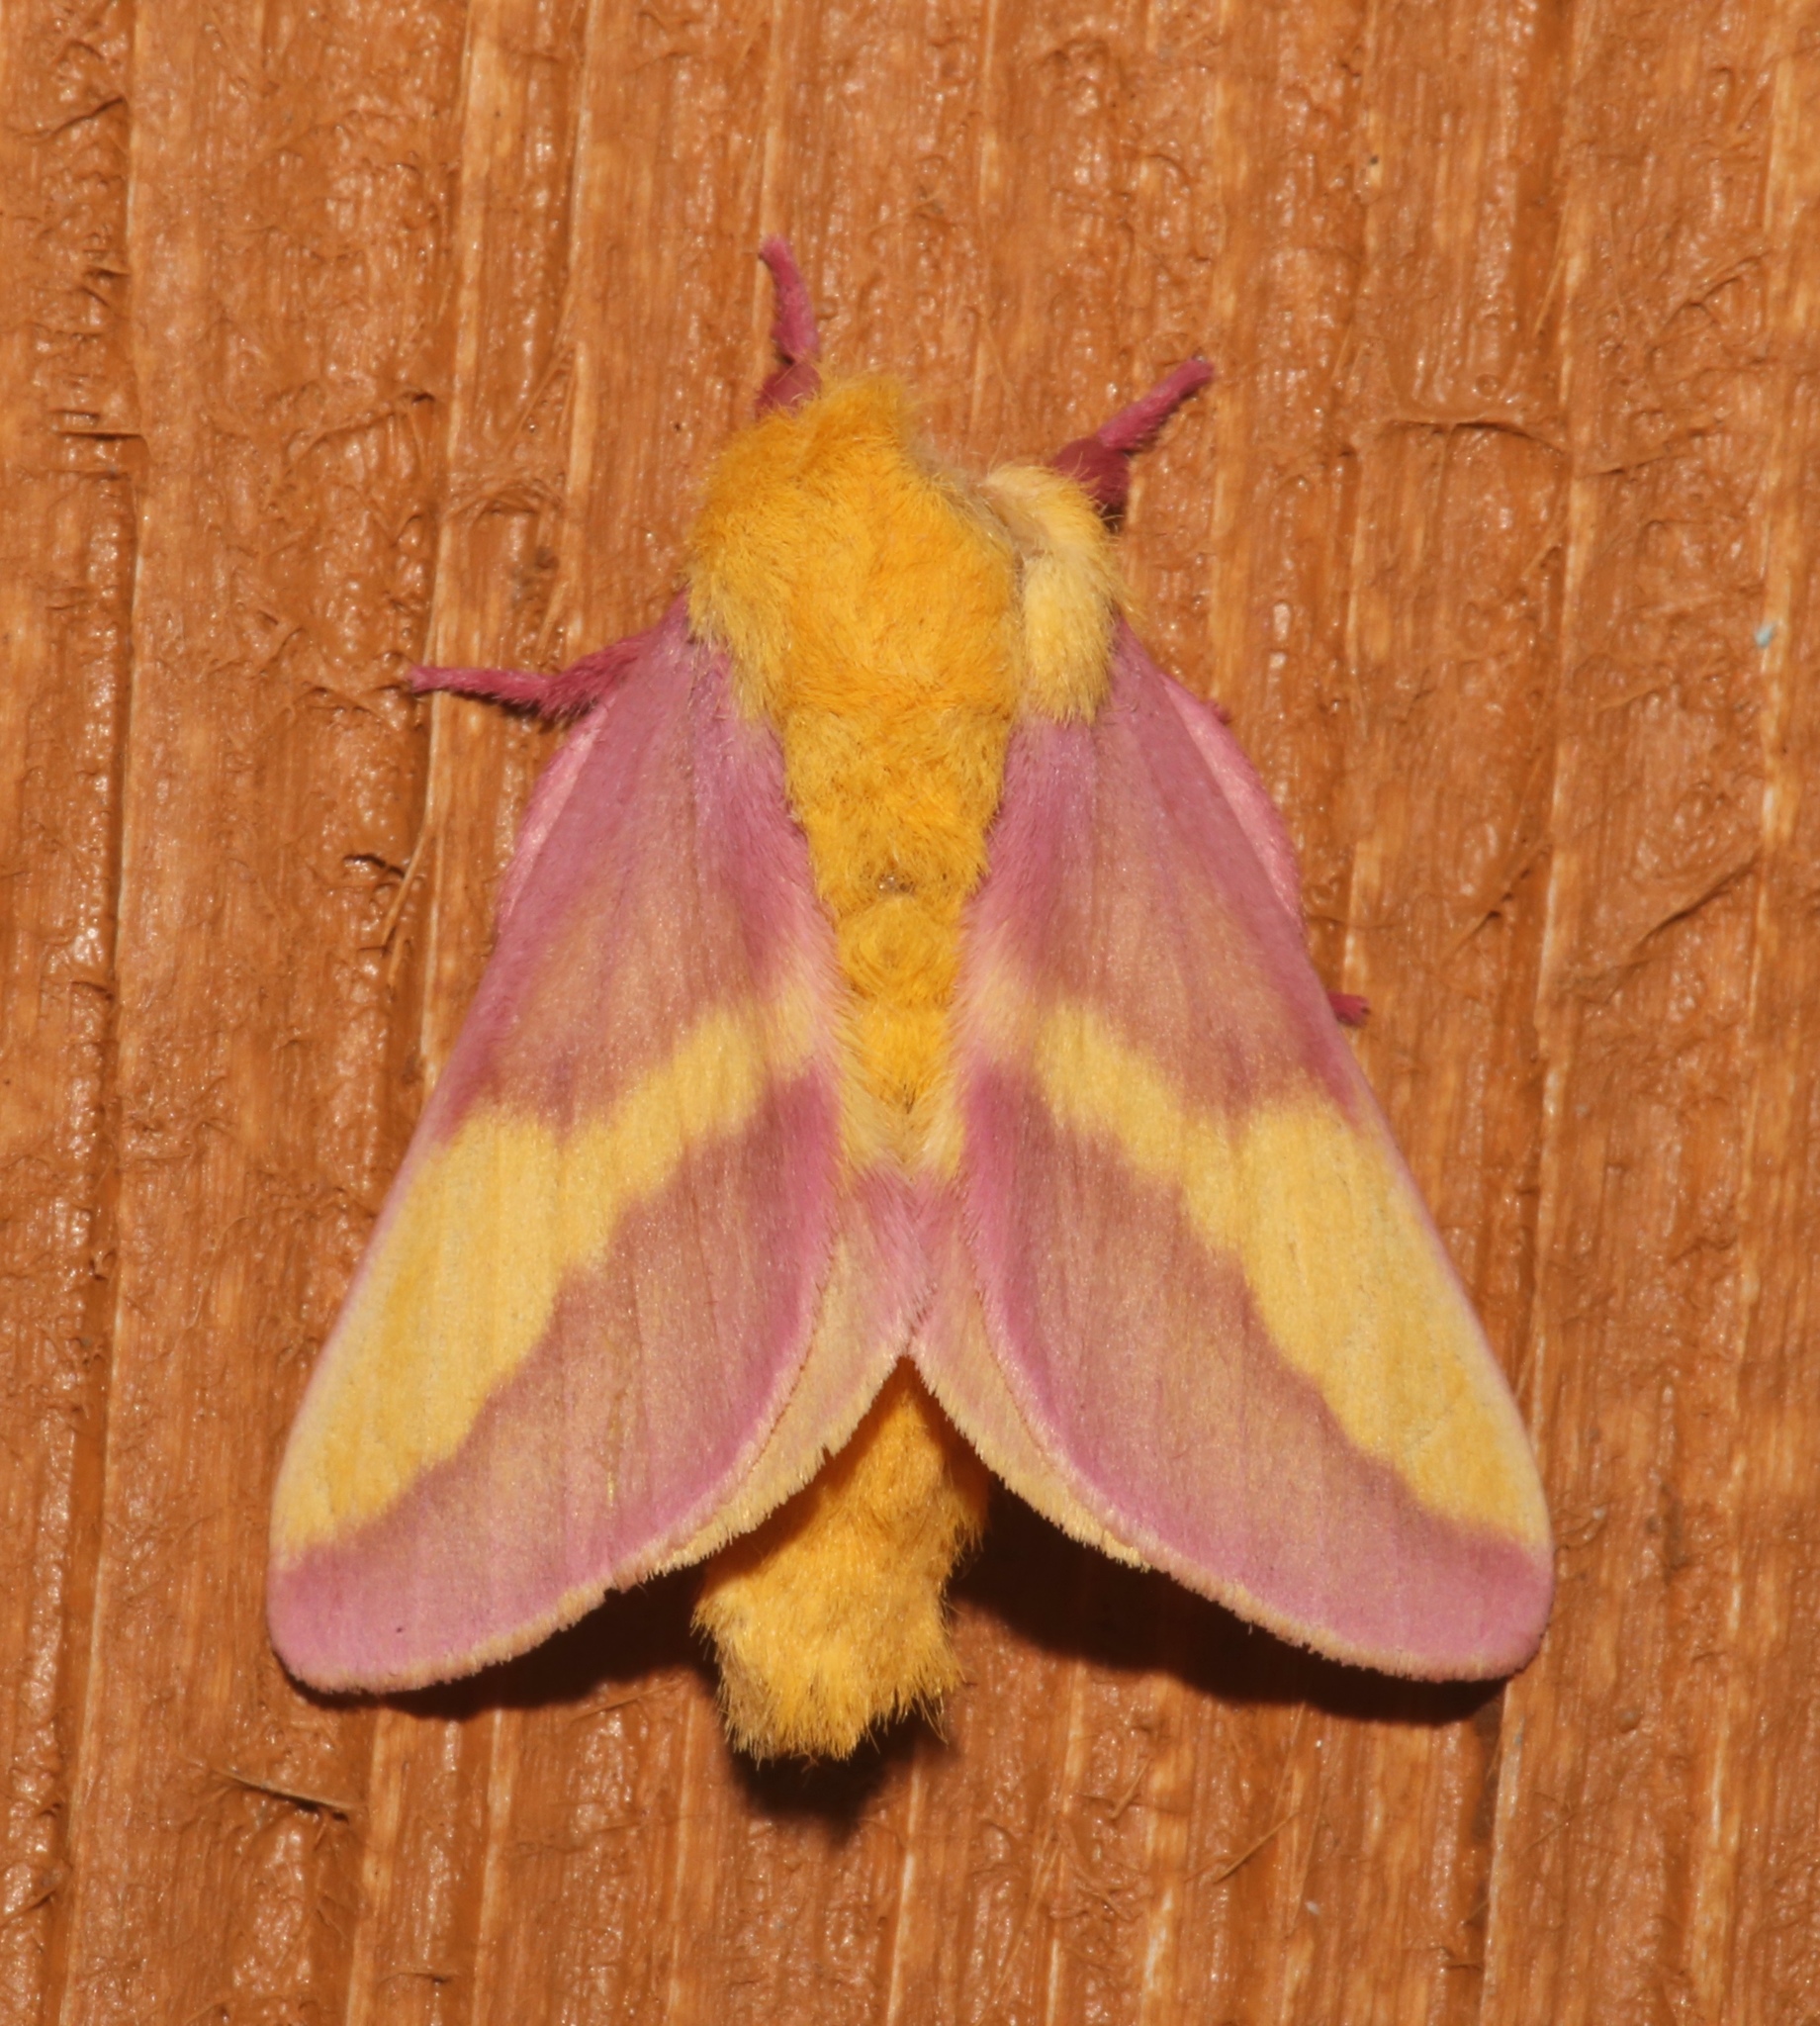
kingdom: Animalia
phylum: Arthropoda
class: Insecta
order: Lepidoptera
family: Saturniidae
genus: Dryocampa
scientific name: Dryocampa rubicunda
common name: Rosy maple moth
